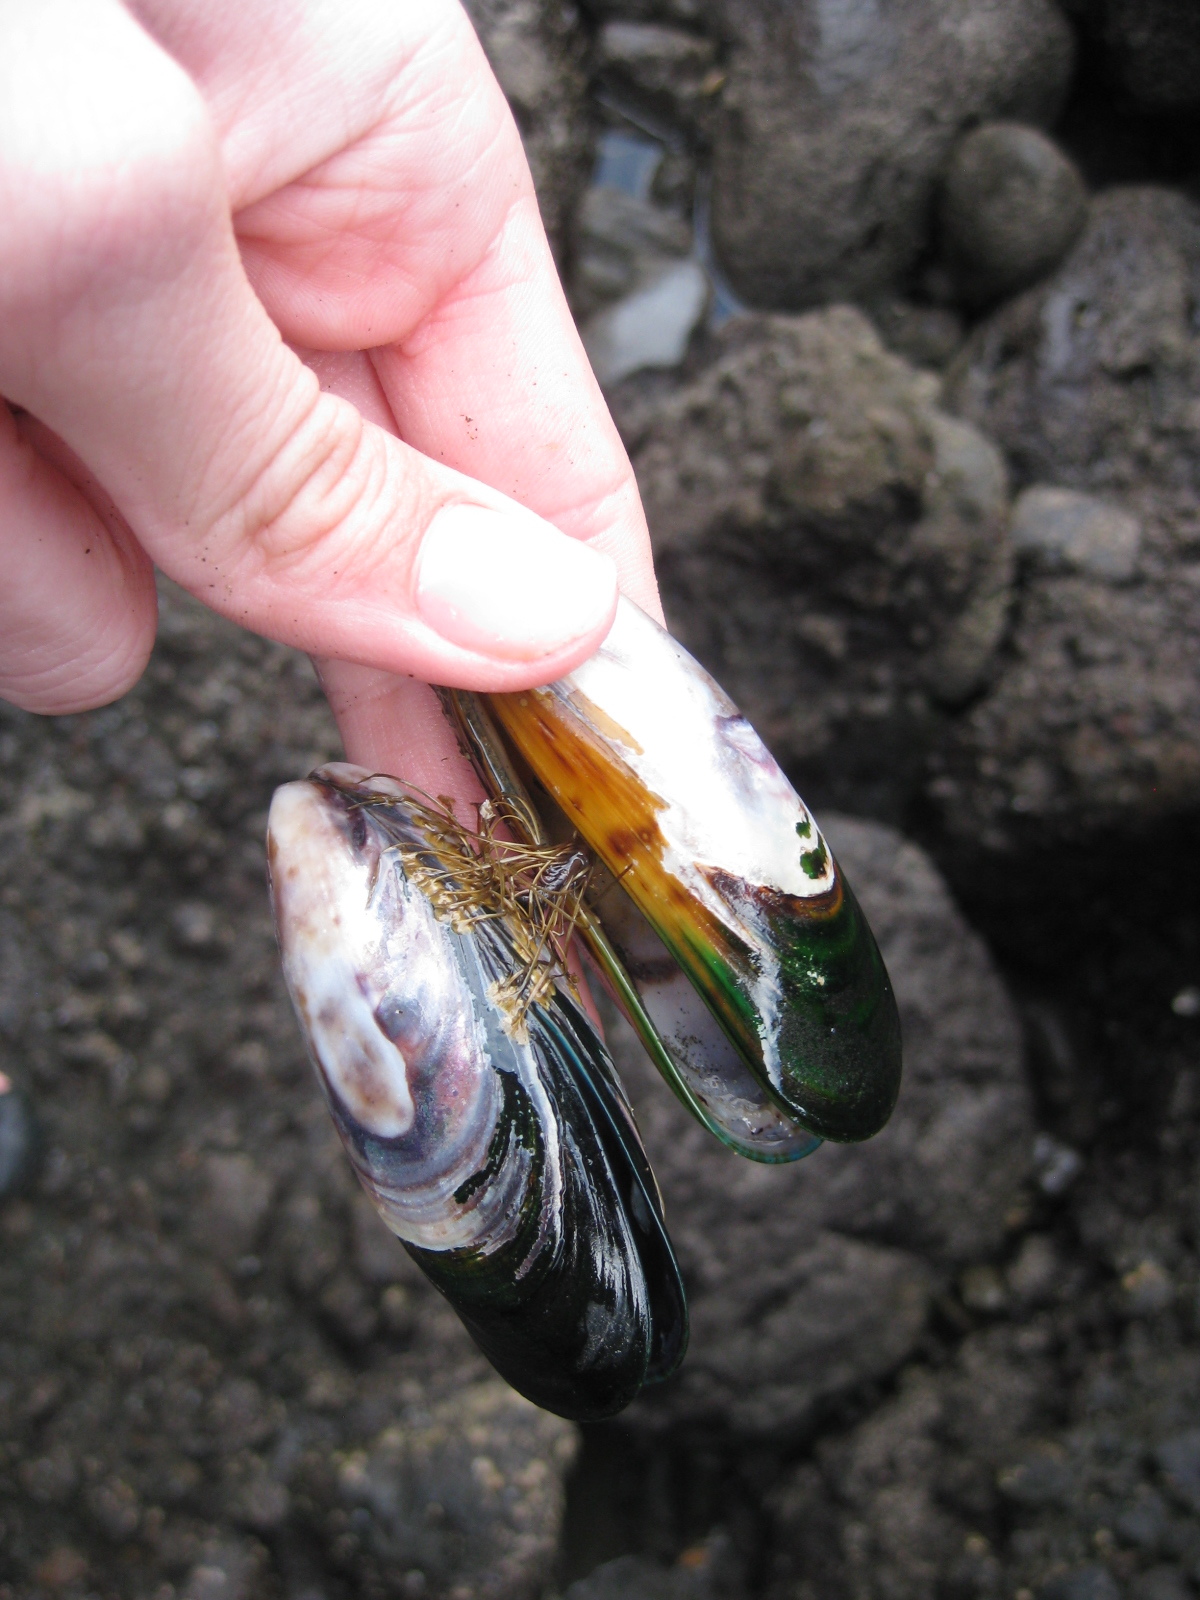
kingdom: Animalia
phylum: Mollusca
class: Bivalvia
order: Mytilida
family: Mytilidae
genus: Perna
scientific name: Perna canaliculus
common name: New zealand greenshelltm
